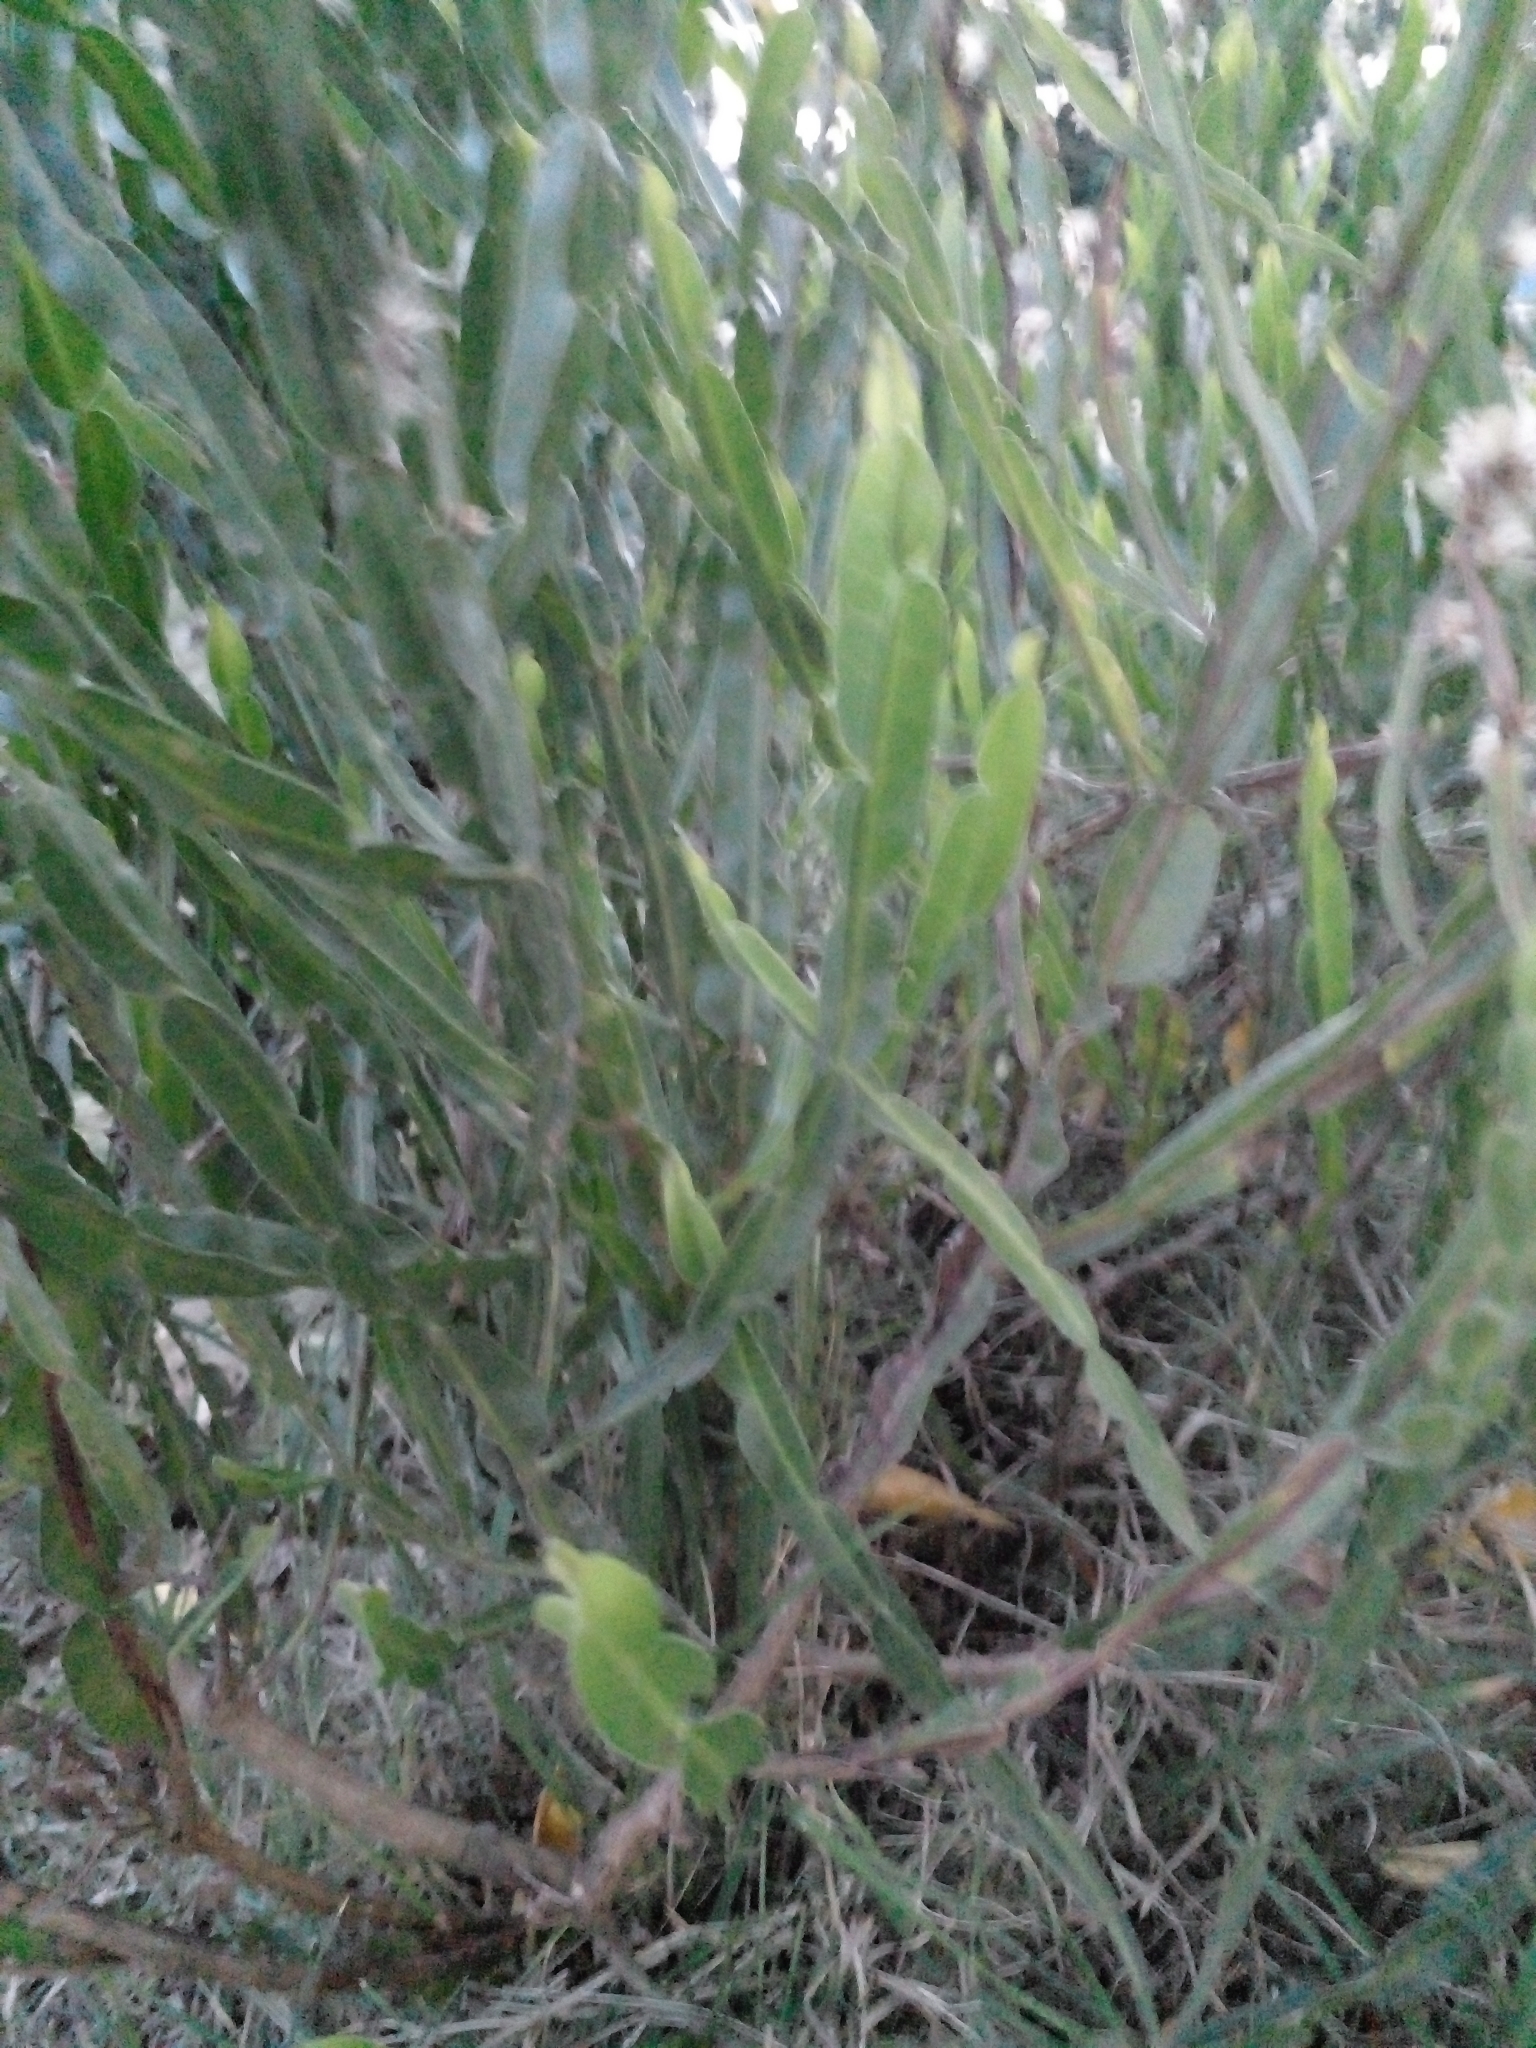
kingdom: Plantae
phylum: Tracheophyta
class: Magnoliopsida
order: Asterales
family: Asteraceae
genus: Baccharis
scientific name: Baccharis trimera
